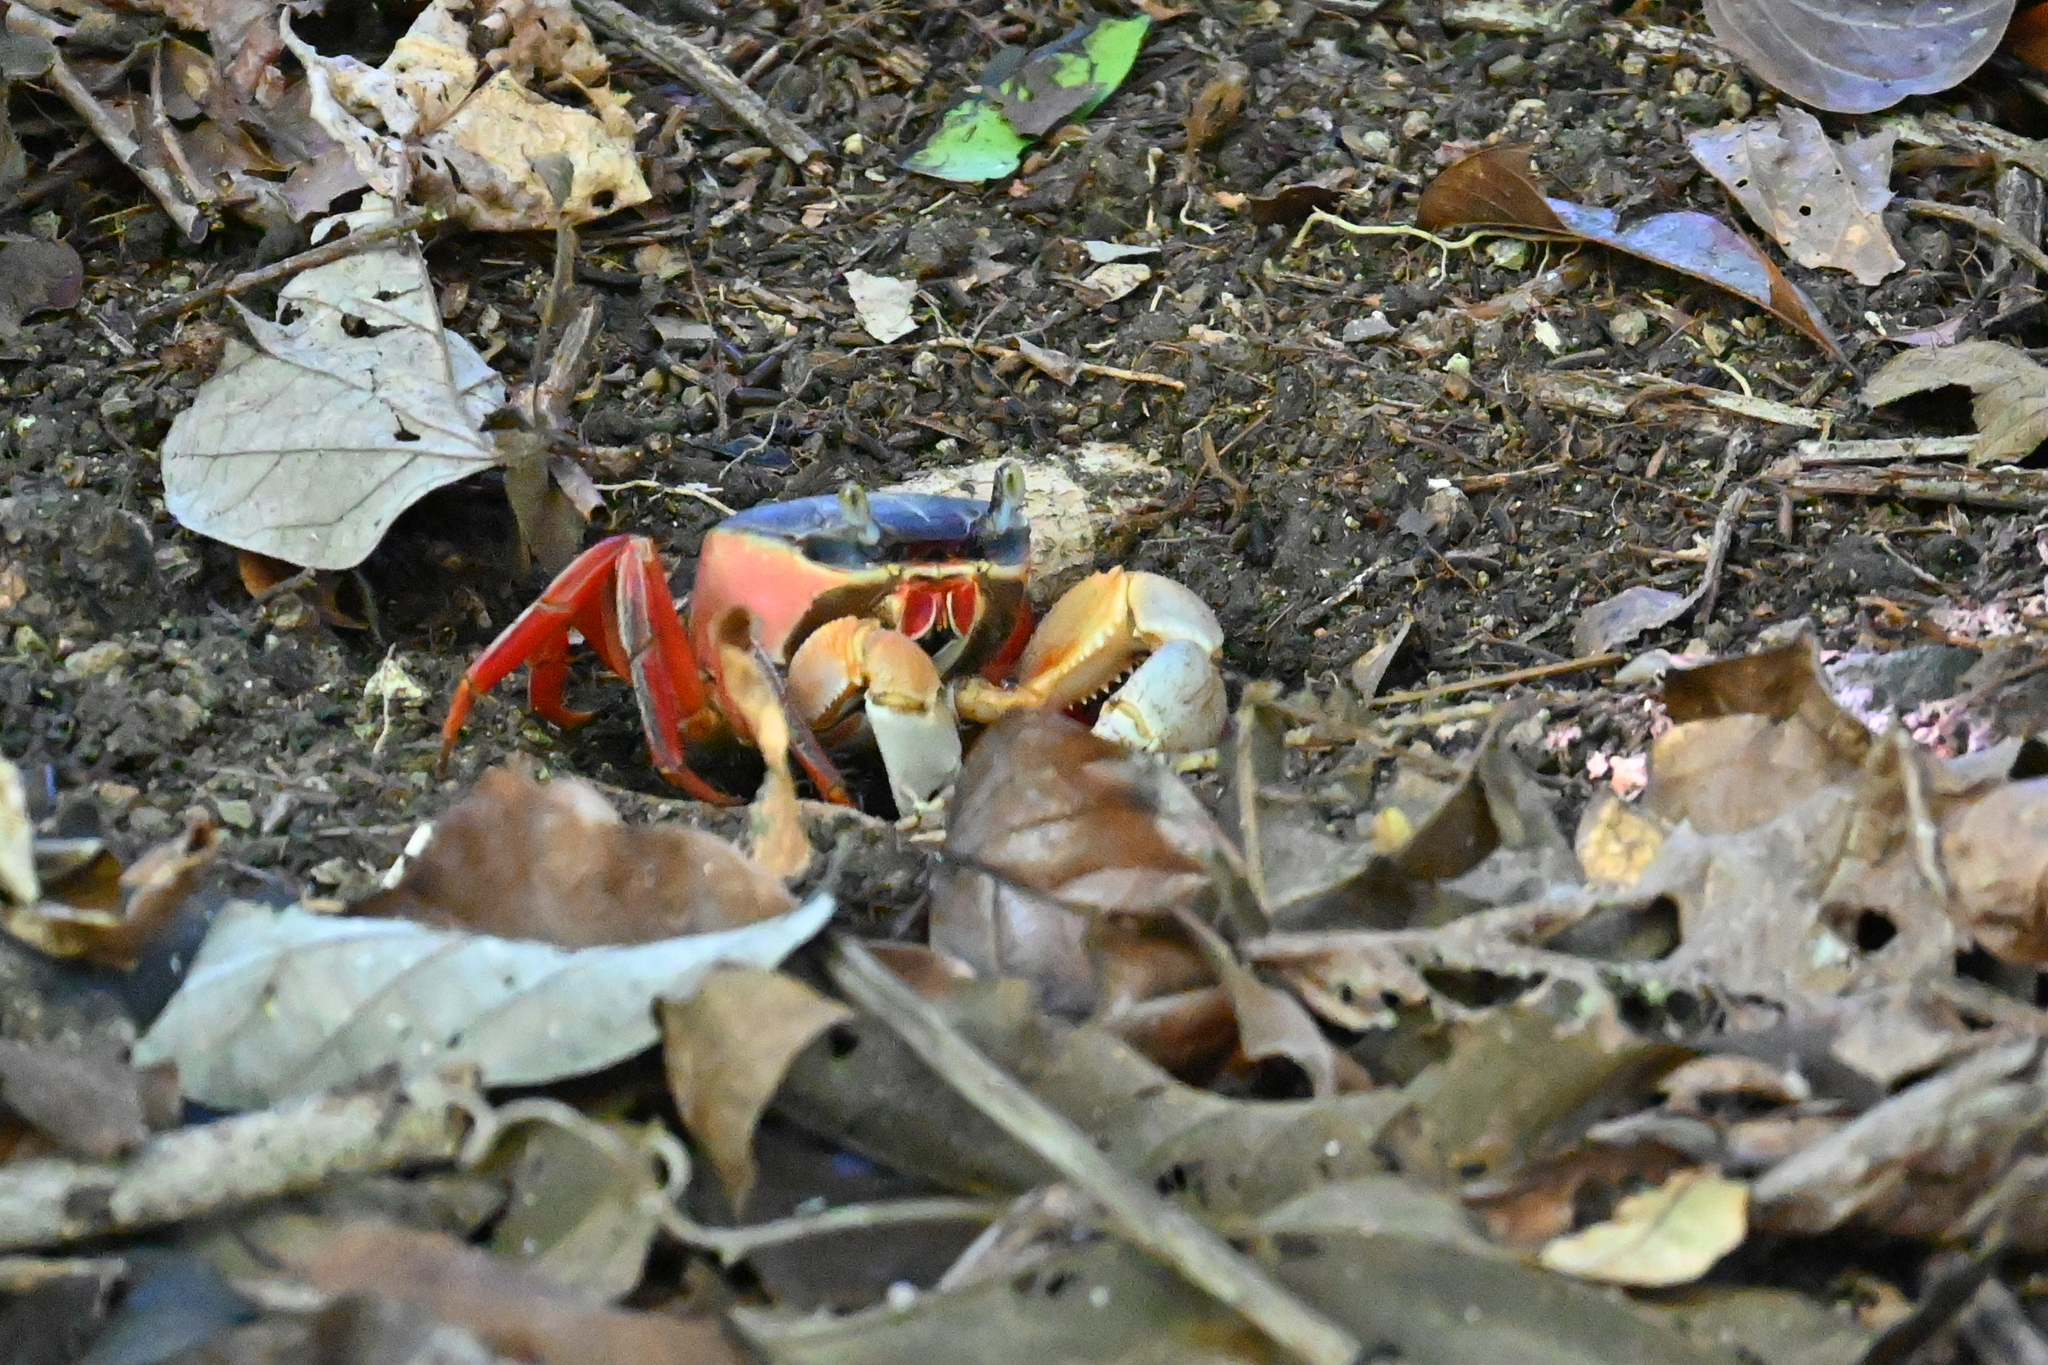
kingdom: Animalia
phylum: Arthropoda
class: Malacostraca
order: Decapoda
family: Gecarcinidae
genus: Cardisoma
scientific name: Cardisoma crassum
